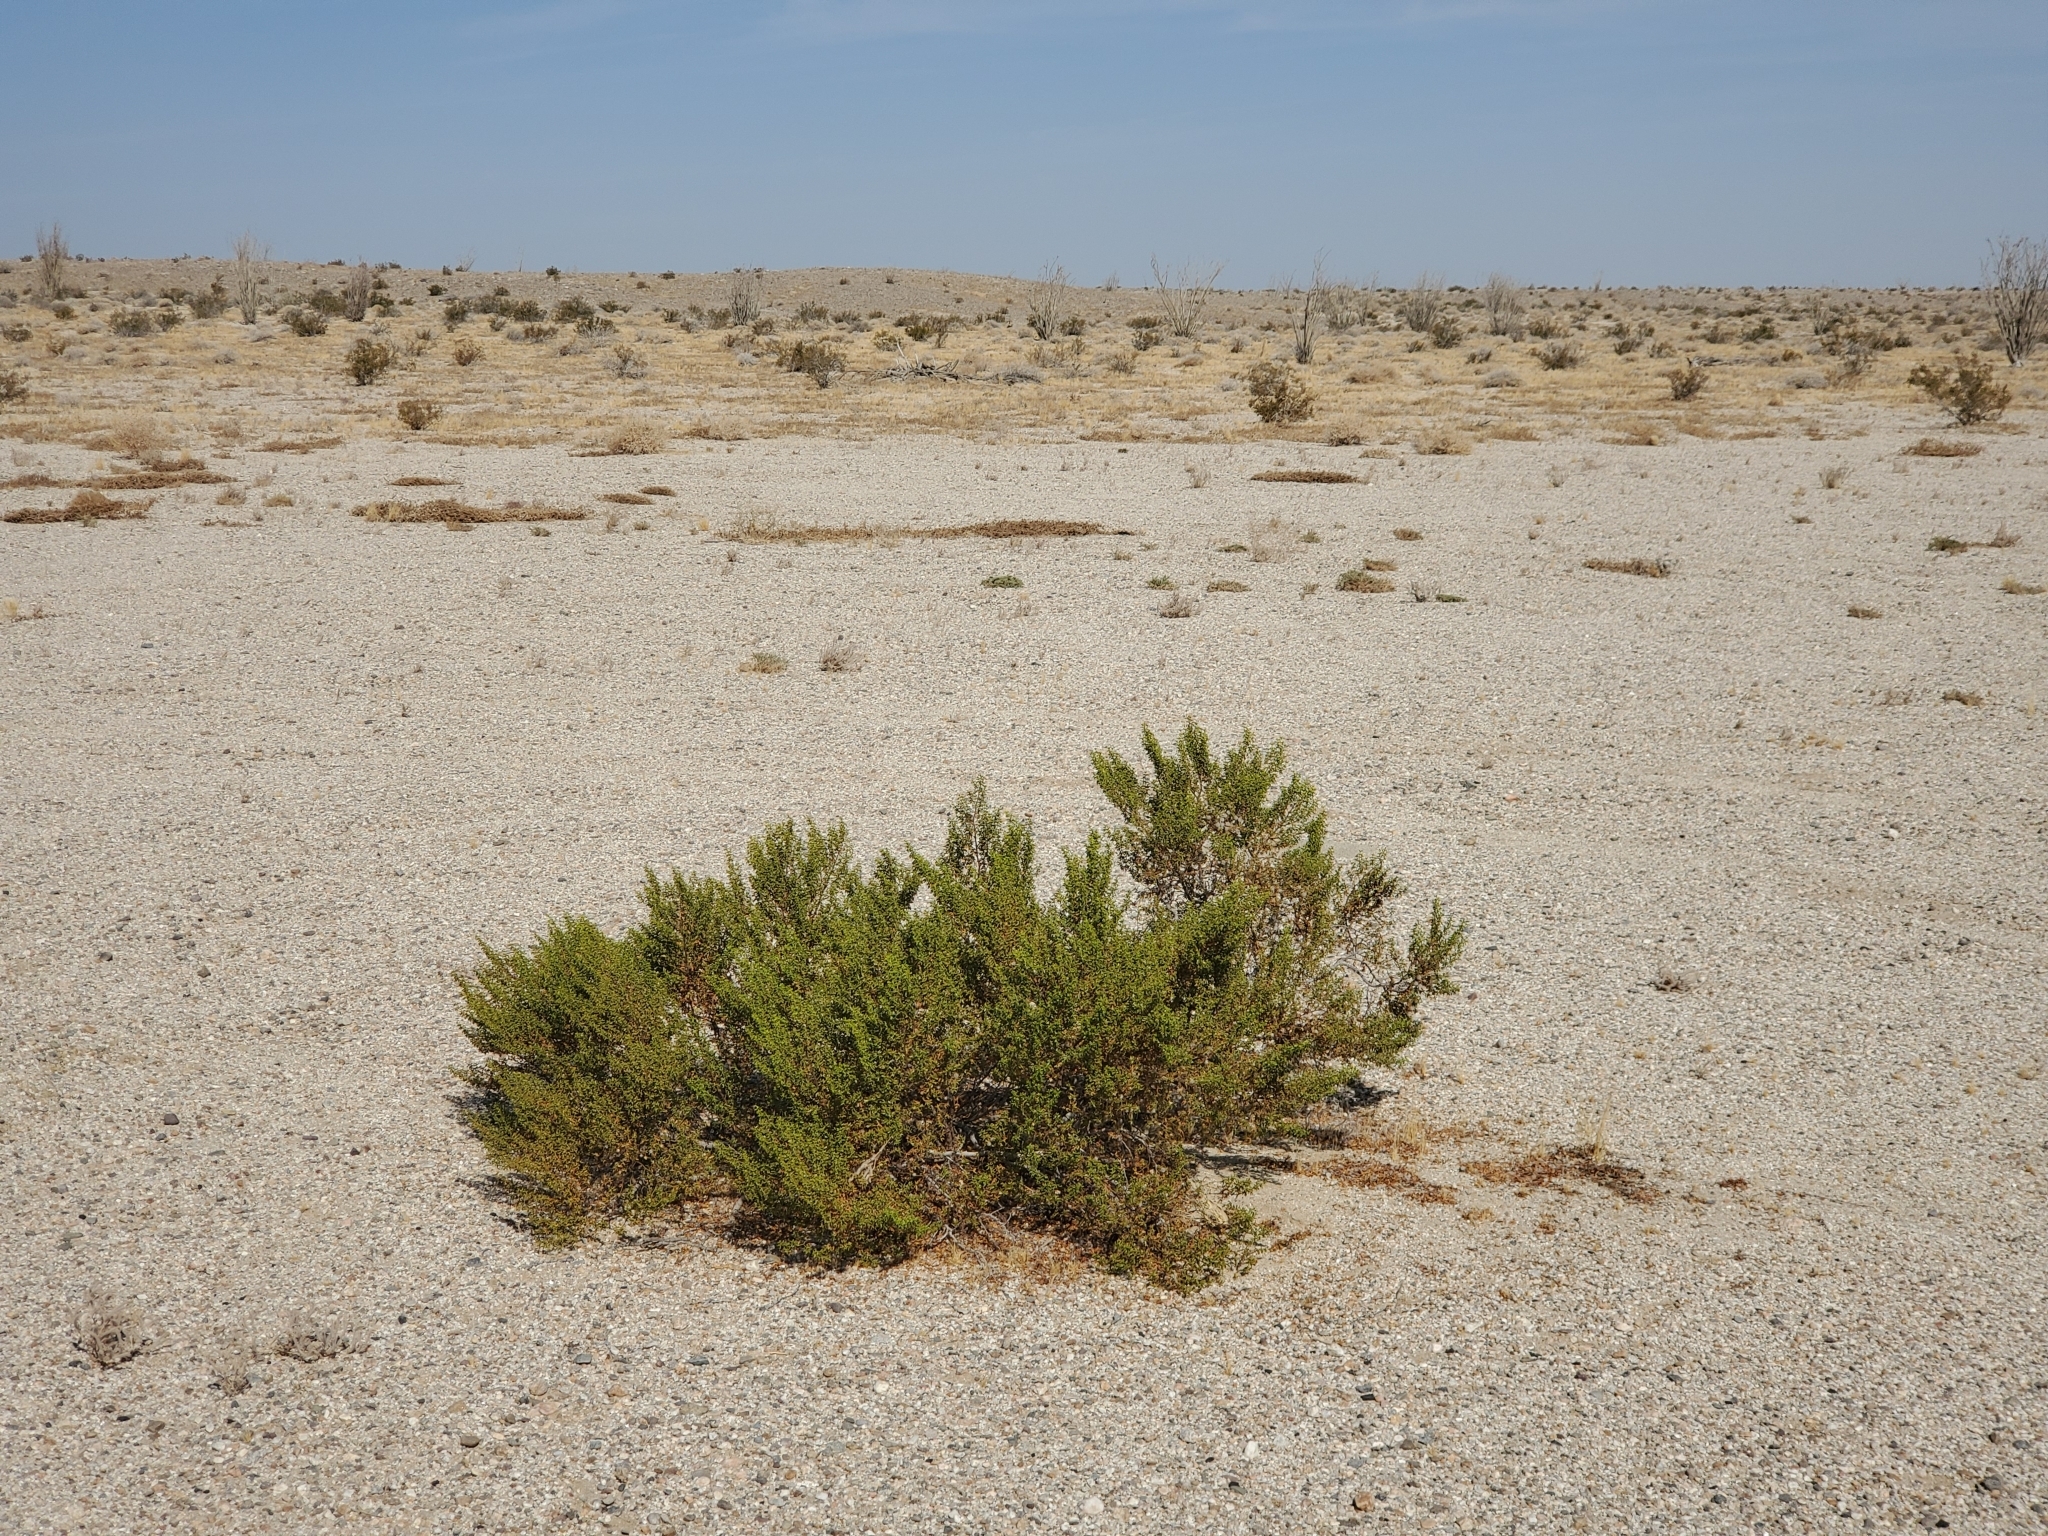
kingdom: Plantae
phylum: Tracheophyta
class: Magnoliopsida
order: Zygophyllales
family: Zygophyllaceae
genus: Larrea
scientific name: Larrea tridentata
